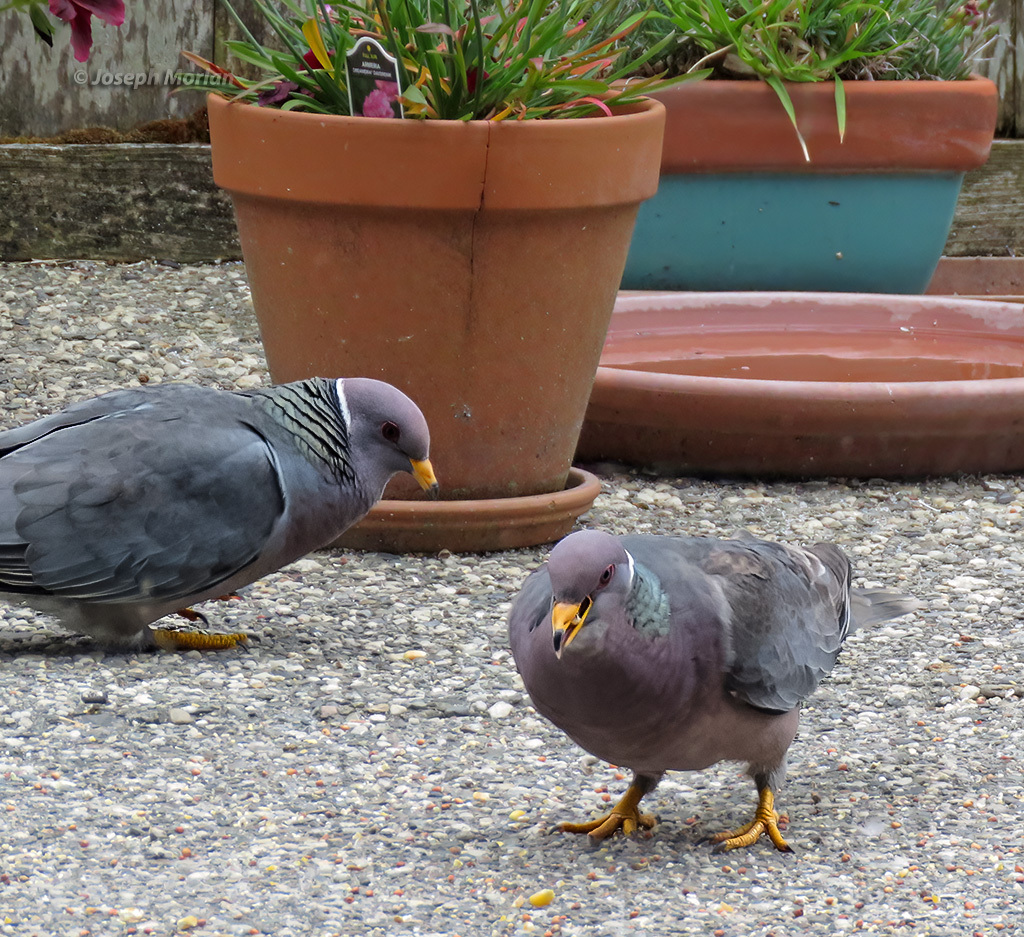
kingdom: Animalia
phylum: Chordata
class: Aves
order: Columbiformes
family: Columbidae
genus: Patagioenas
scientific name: Patagioenas fasciata
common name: Band-tailed pigeon
